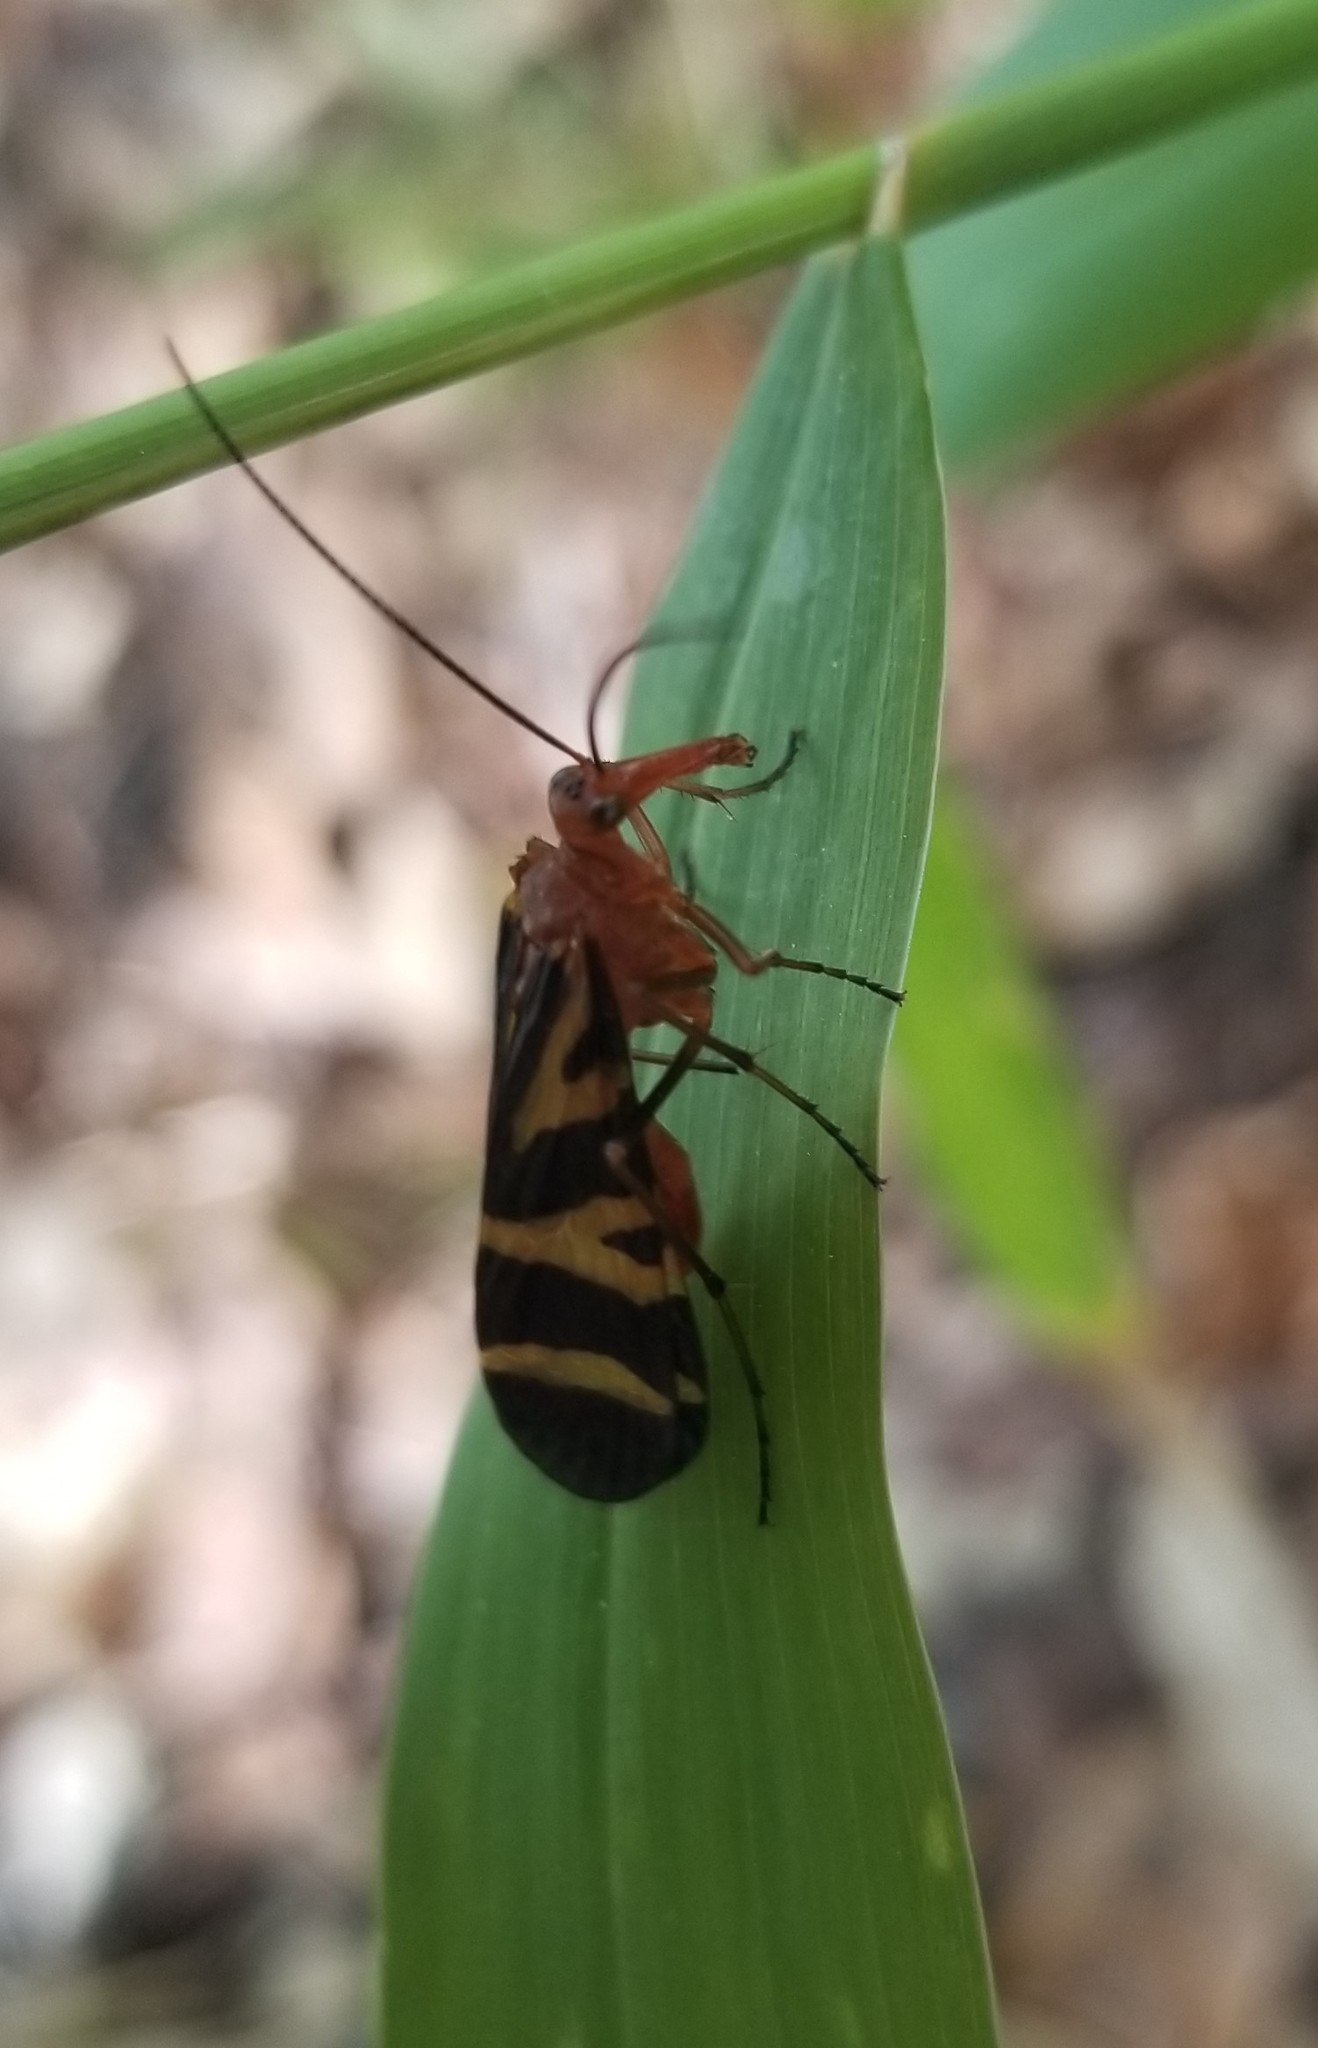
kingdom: Animalia
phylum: Arthropoda
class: Insecta
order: Mecoptera
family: Panorpidae
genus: Panorpa
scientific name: Panorpa nuptialis
